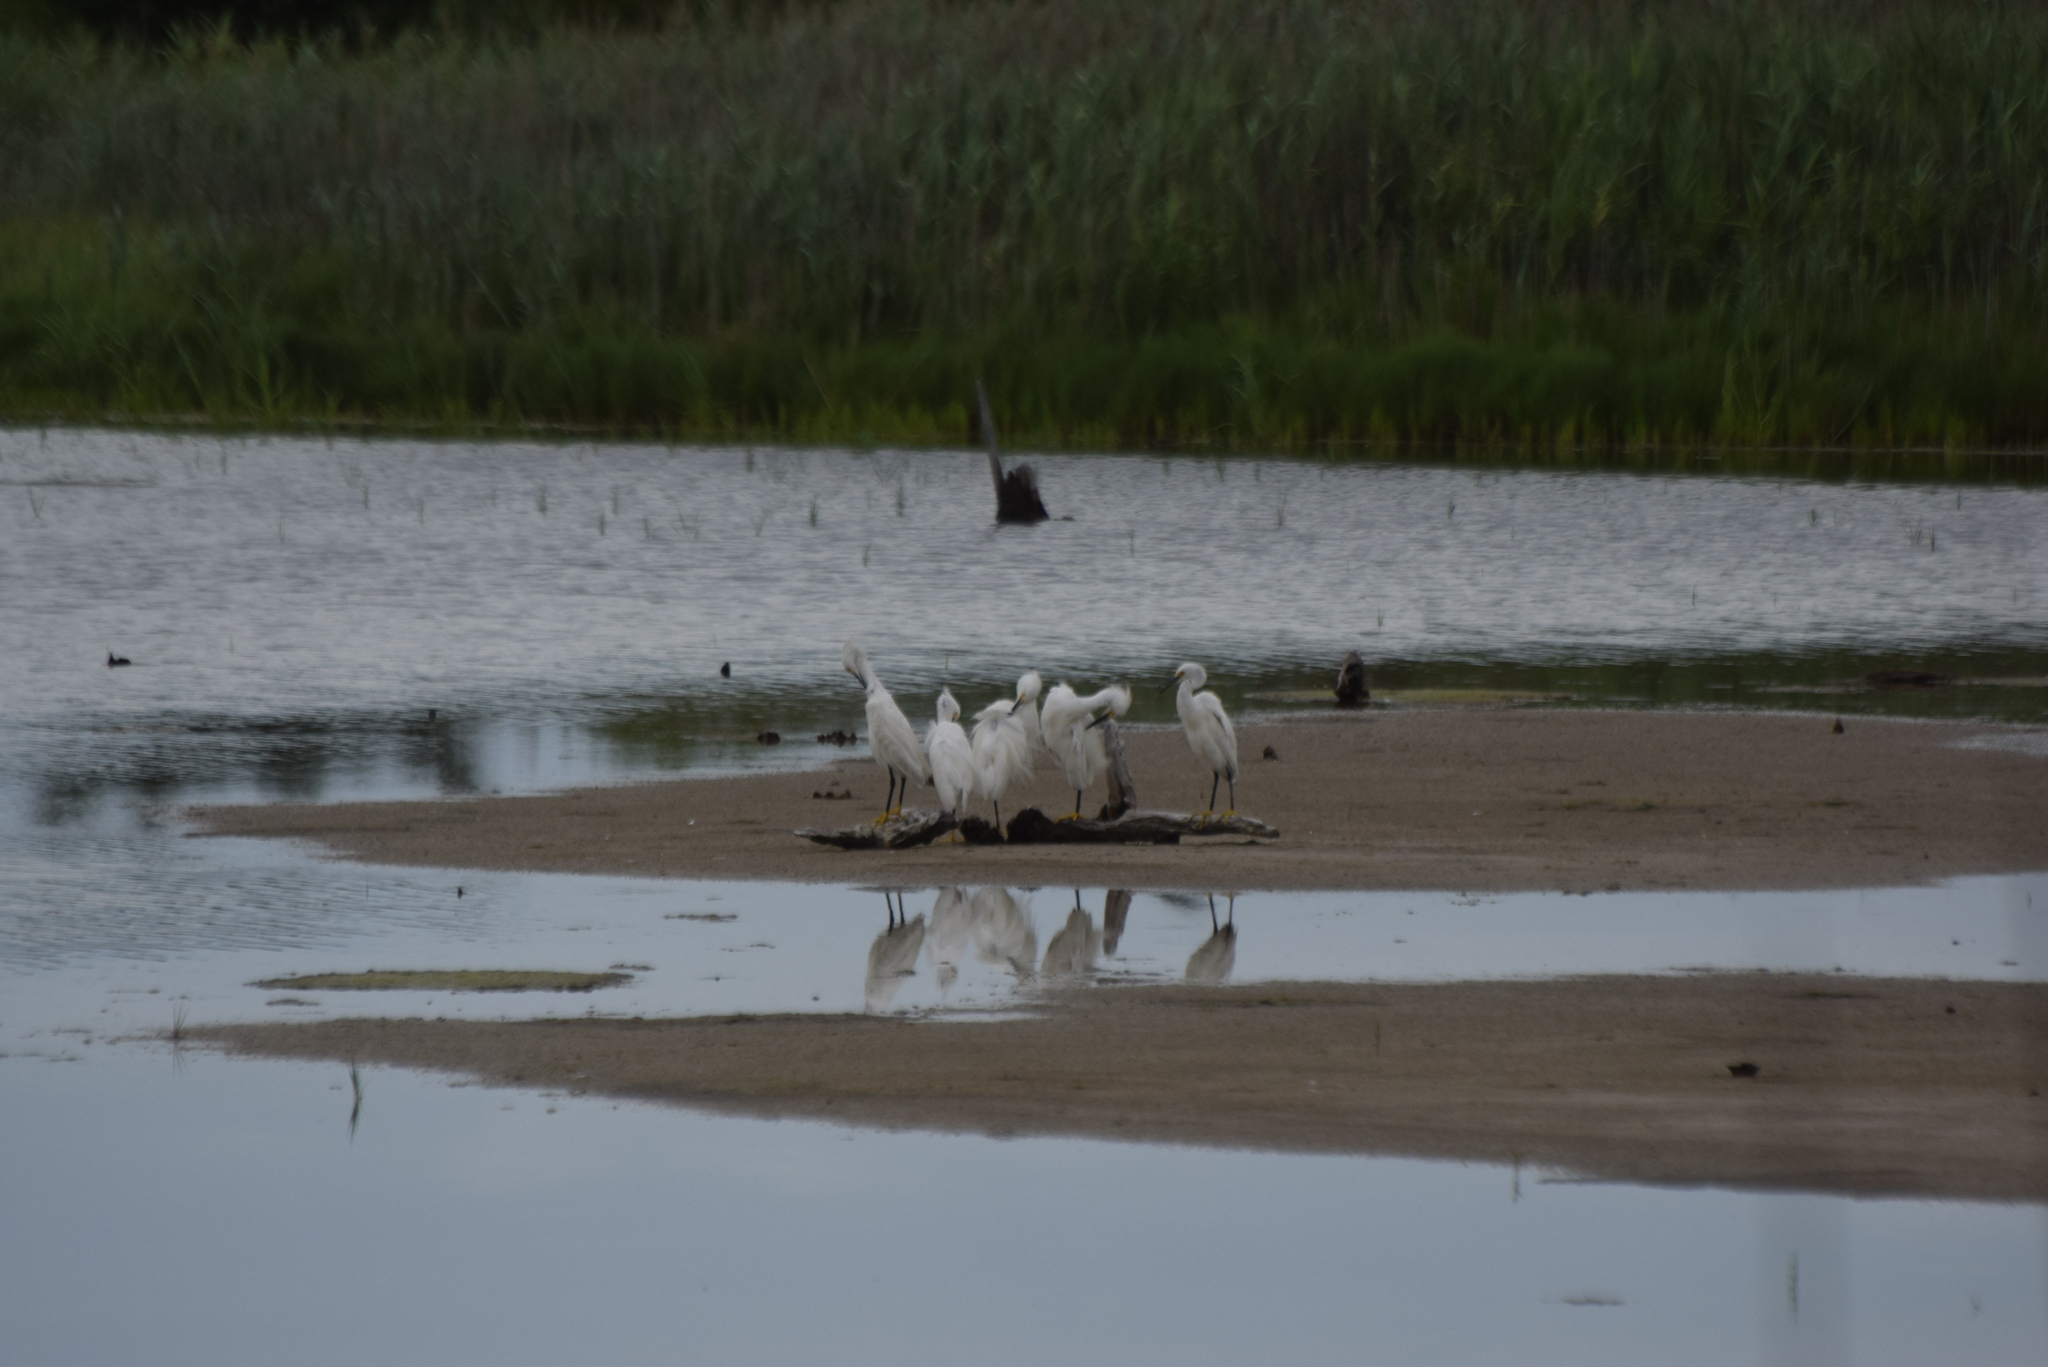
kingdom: Animalia
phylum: Chordata
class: Aves
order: Pelecaniformes
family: Ardeidae
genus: Egretta
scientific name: Egretta thula
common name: Snowy egret
